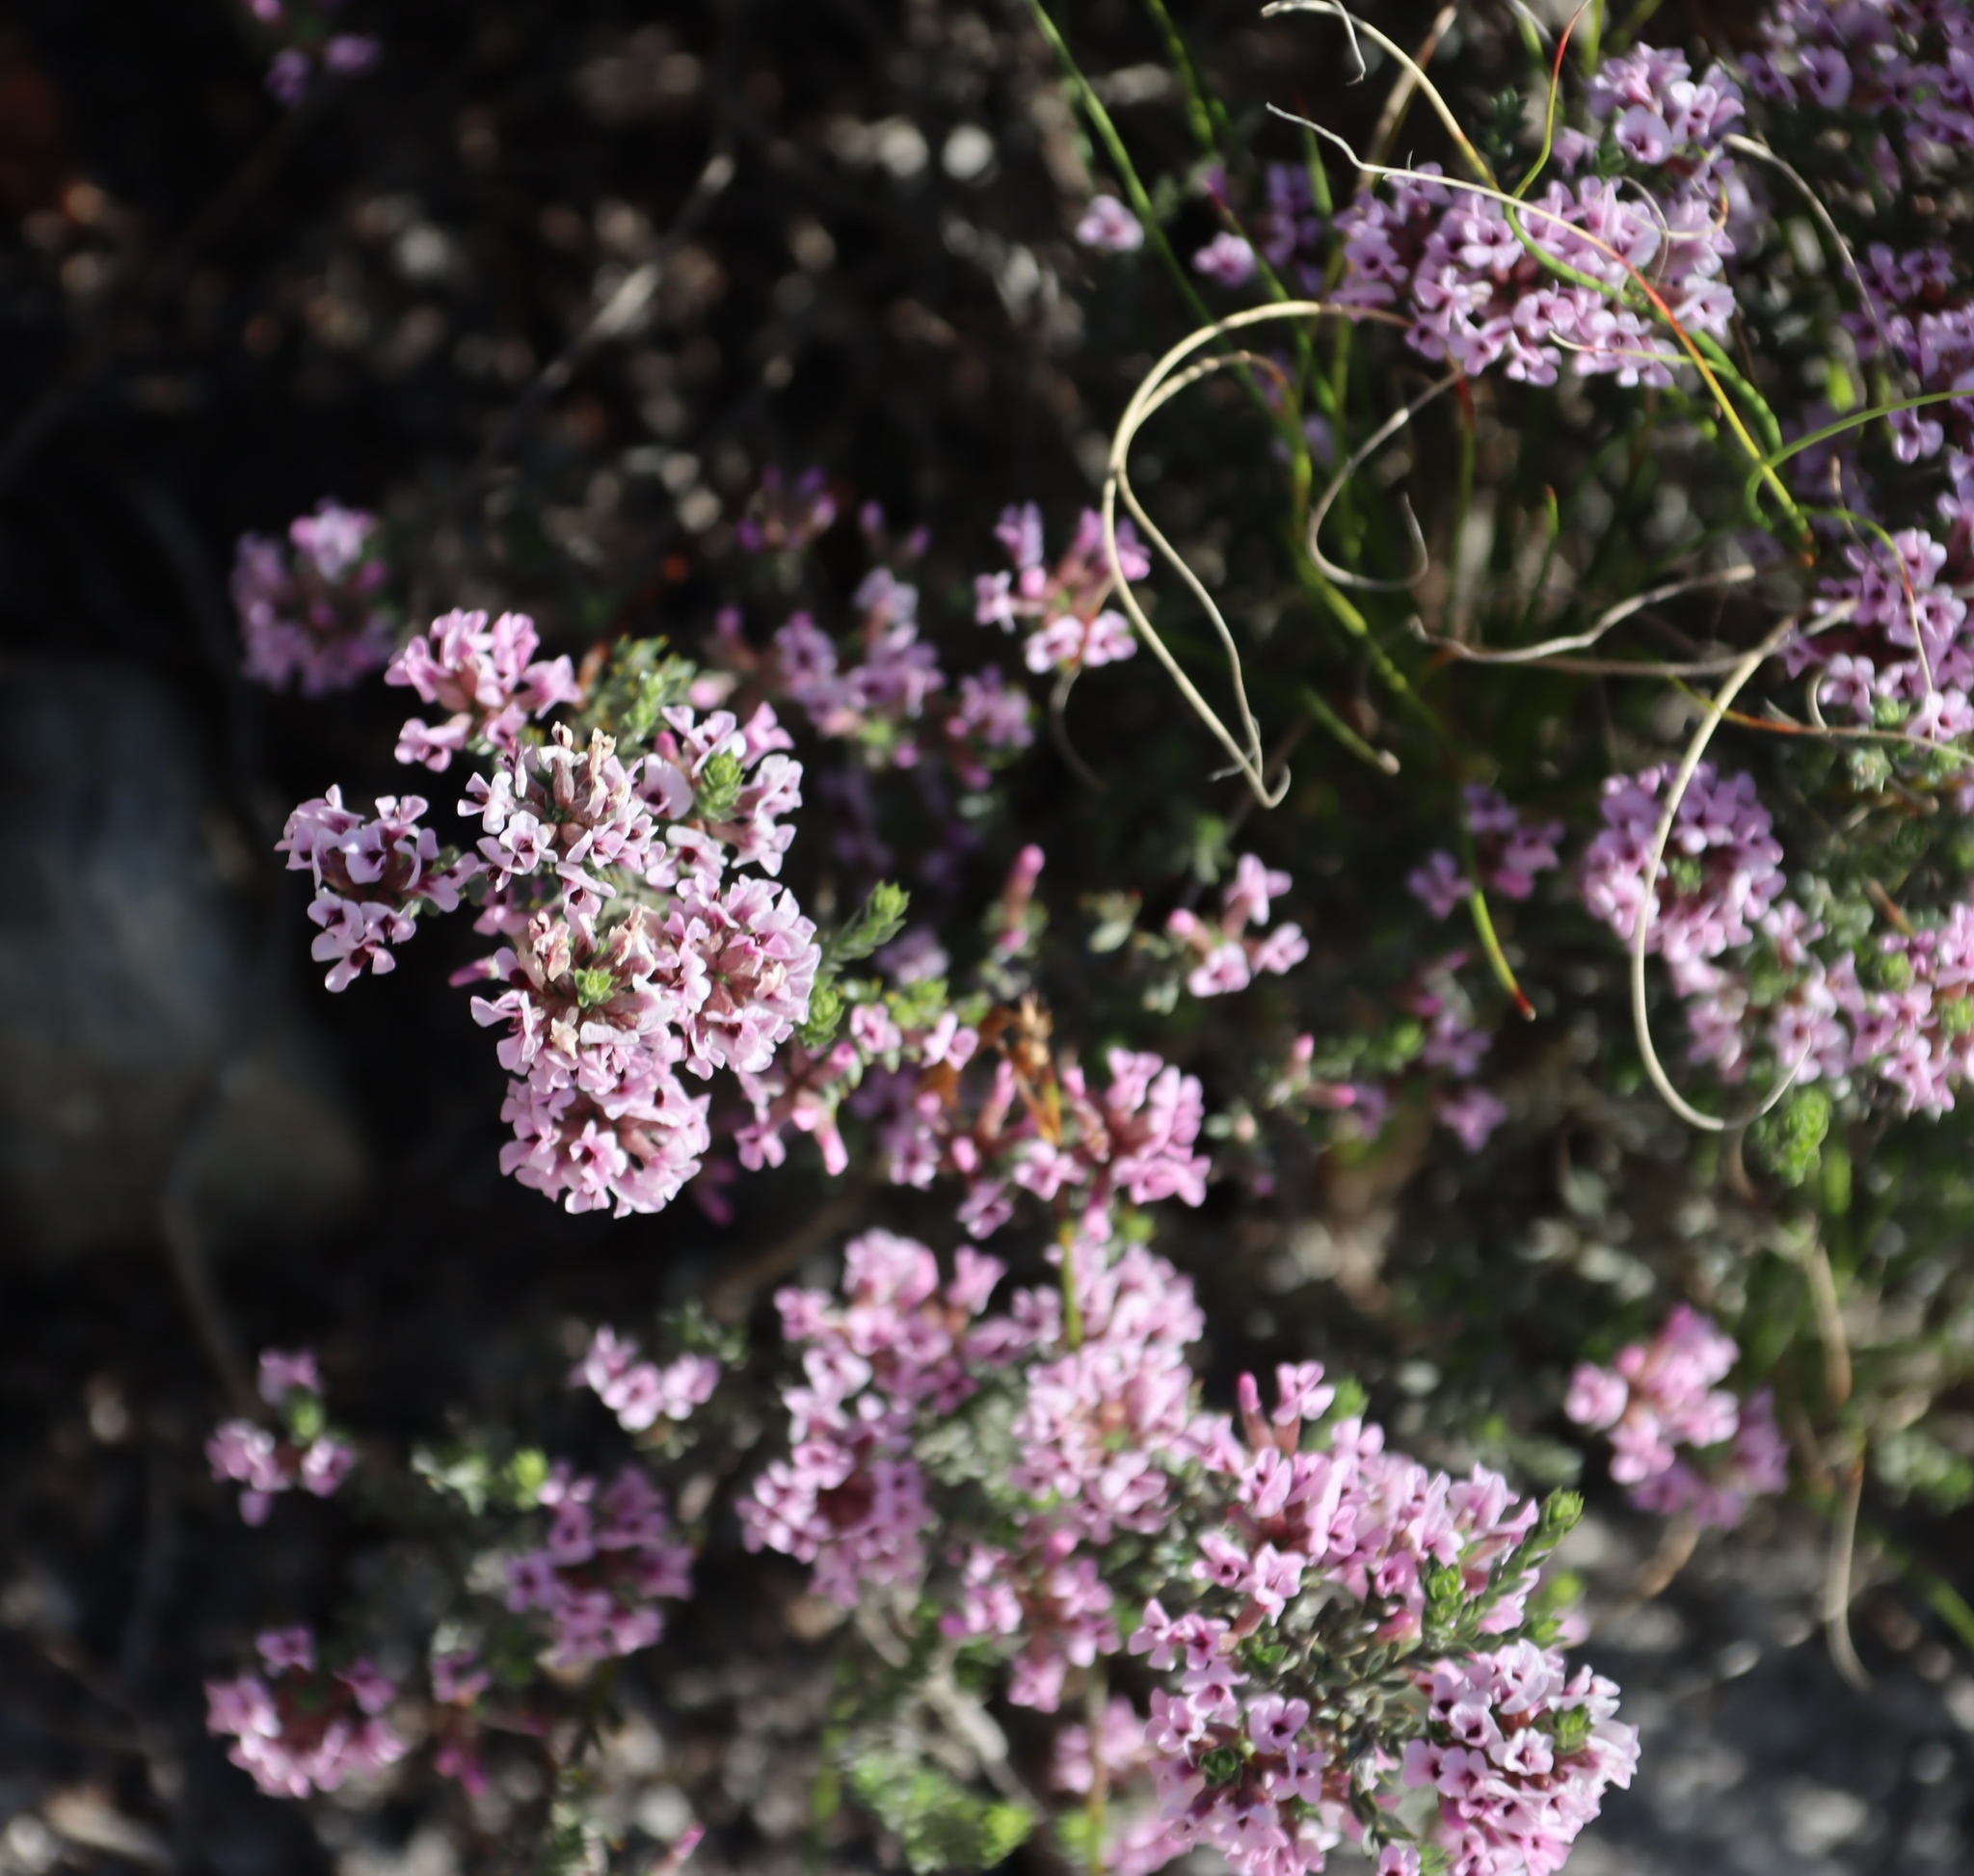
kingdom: Plantae
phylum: Tracheophyta
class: Magnoliopsida
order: Fabales
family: Fabaceae
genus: Amphithalea
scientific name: Amphithalea ericifolia
